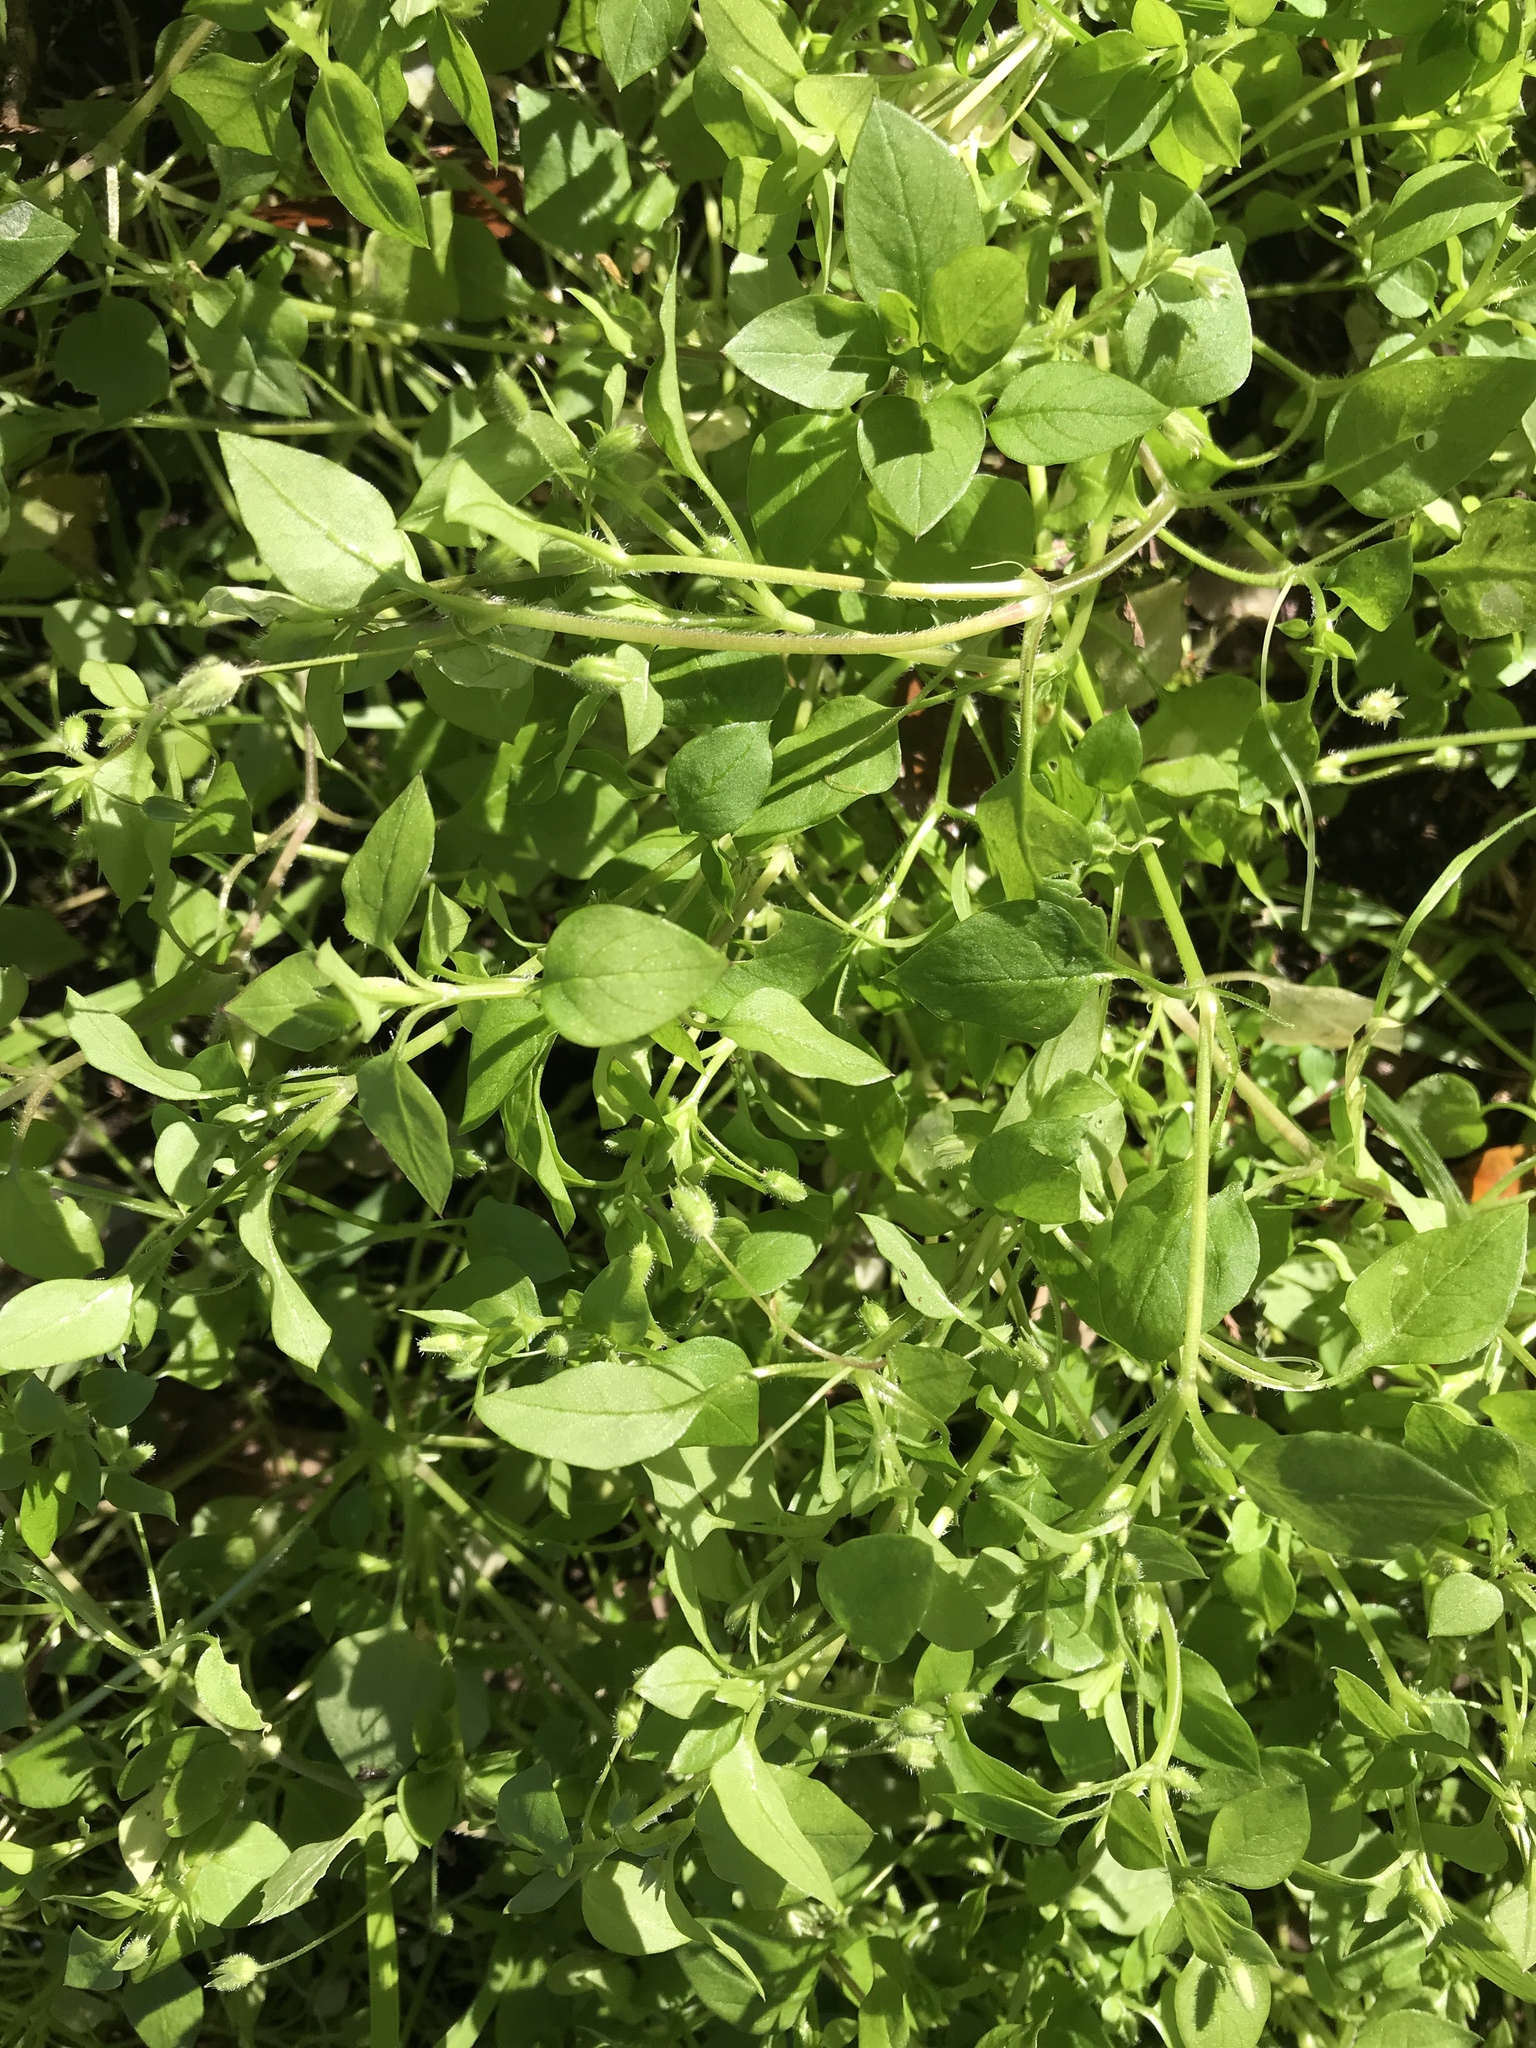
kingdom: Plantae
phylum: Tracheophyta
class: Magnoliopsida
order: Caryophyllales
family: Caryophyllaceae
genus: Stellaria
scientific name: Stellaria media
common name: Common chickweed
